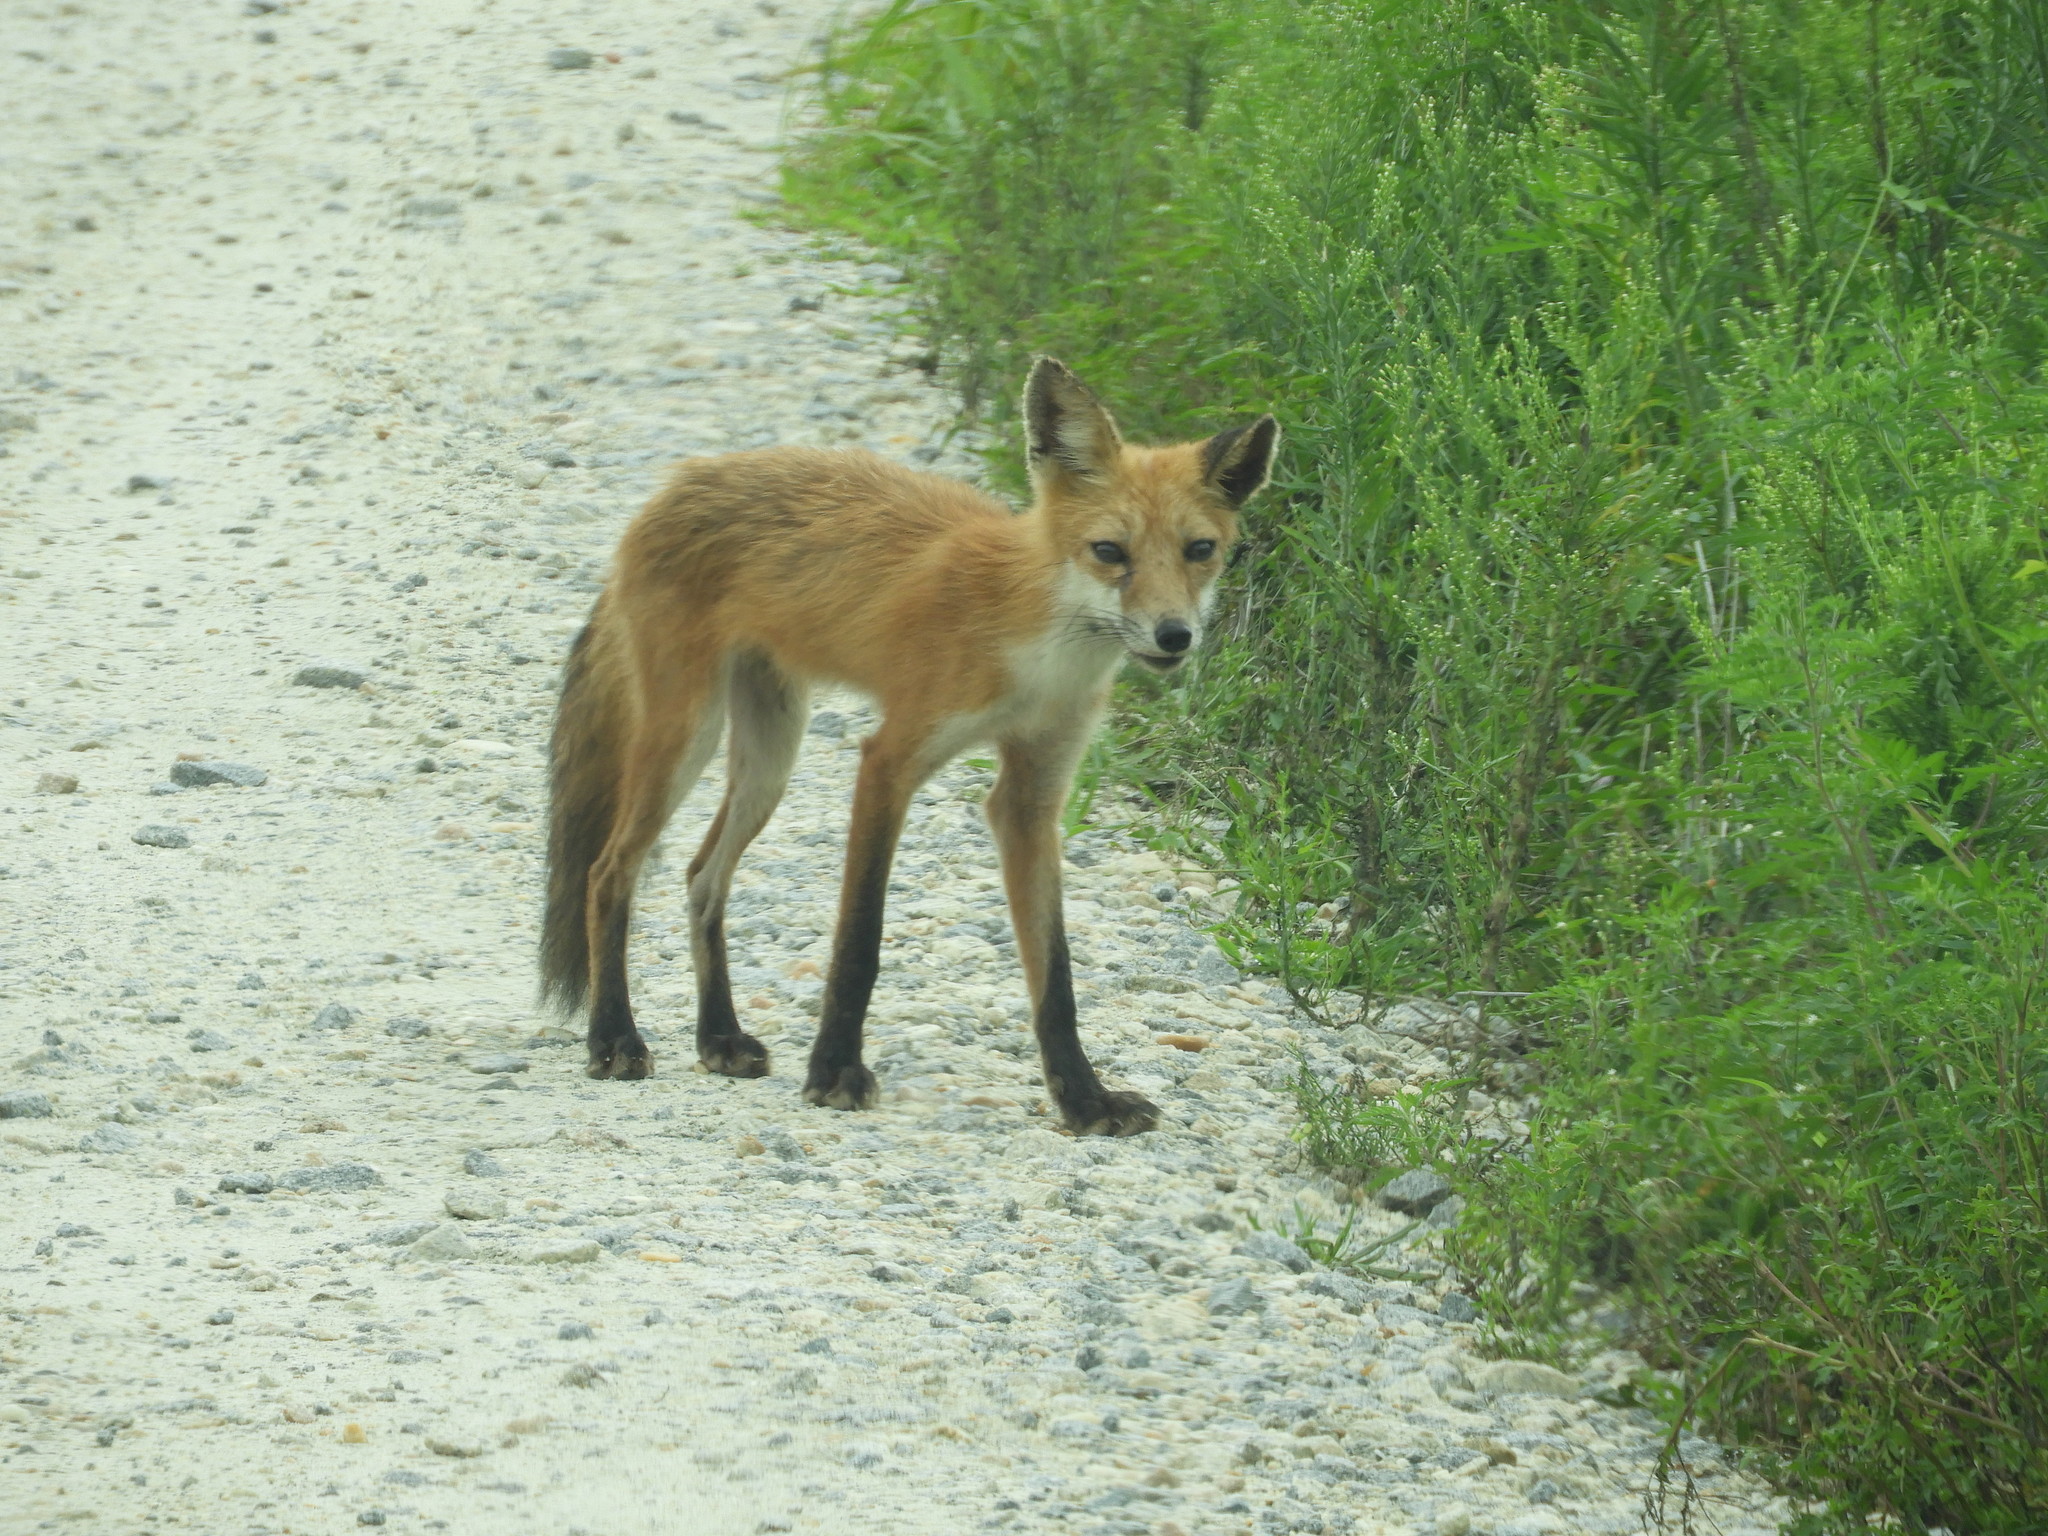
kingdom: Animalia
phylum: Chordata
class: Mammalia
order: Carnivora
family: Canidae
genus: Vulpes
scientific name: Vulpes vulpes
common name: Red fox
